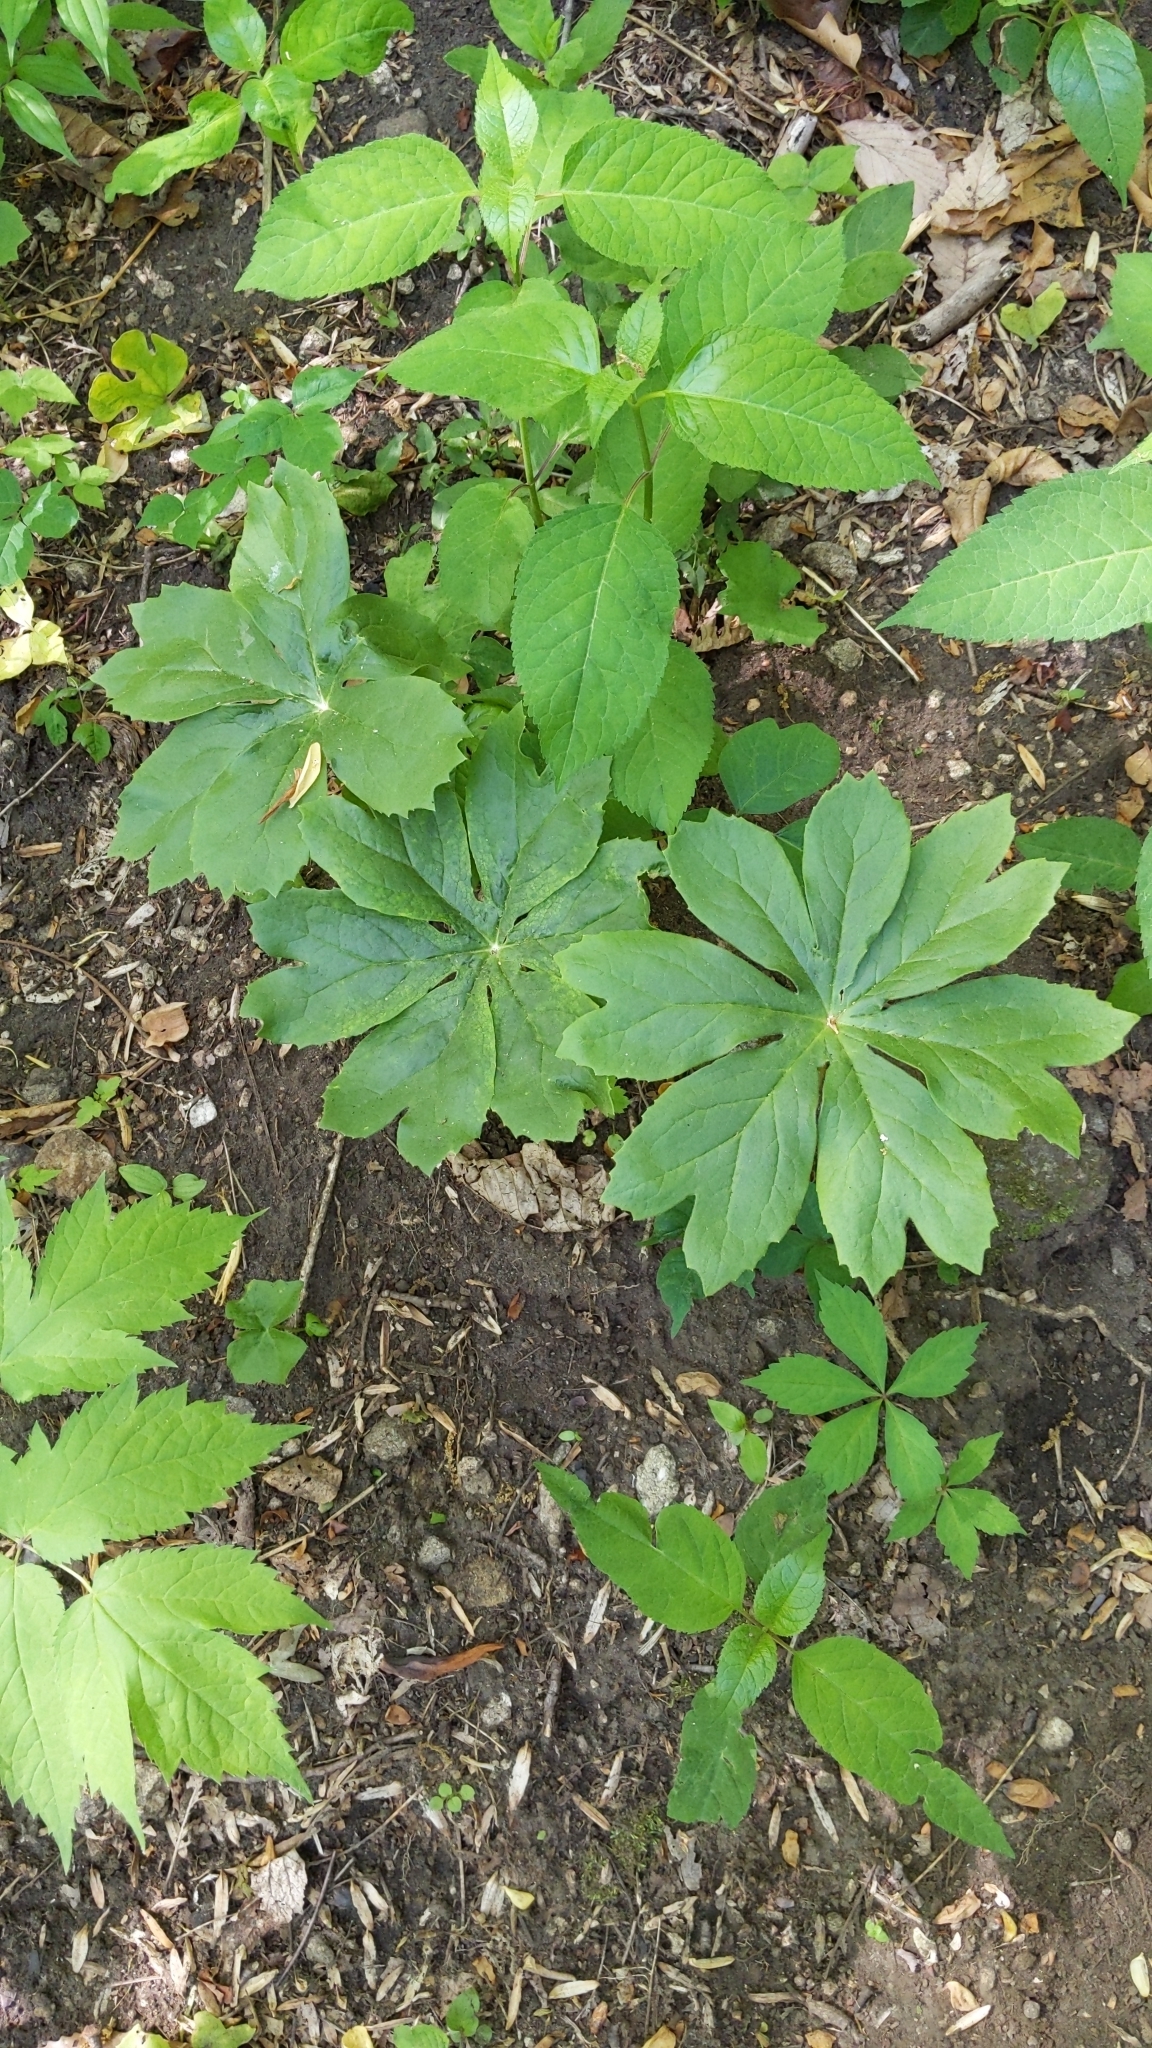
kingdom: Plantae
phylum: Tracheophyta
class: Magnoliopsida
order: Ranunculales
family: Berberidaceae
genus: Podophyllum
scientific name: Podophyllum peltatum
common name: Wild mandrake
